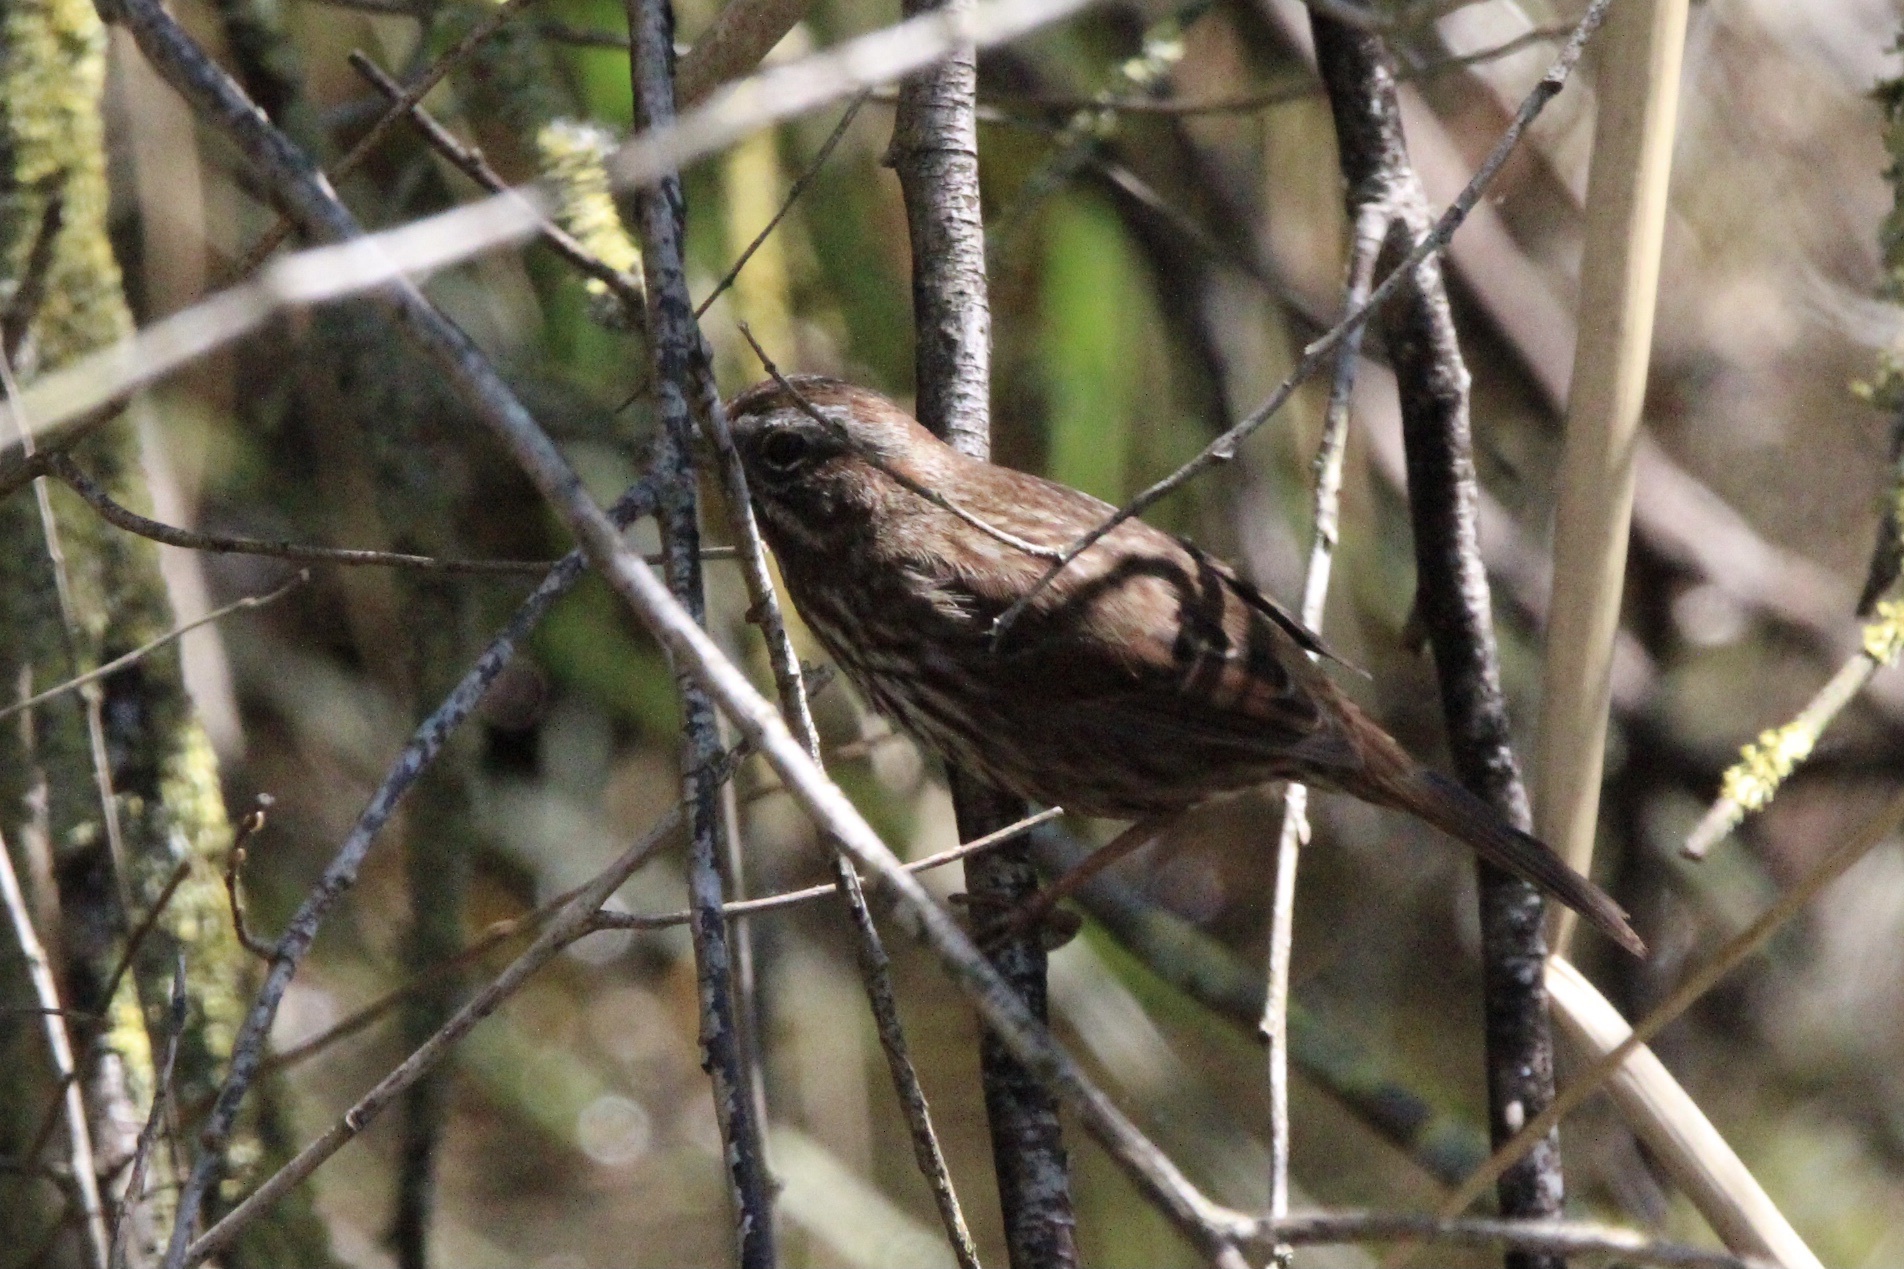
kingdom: Animalia
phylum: Chordata
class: Aves
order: Passeriformes
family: Passerellidae
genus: Melospiza
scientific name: Melospiza melodia
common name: Song sparrow
